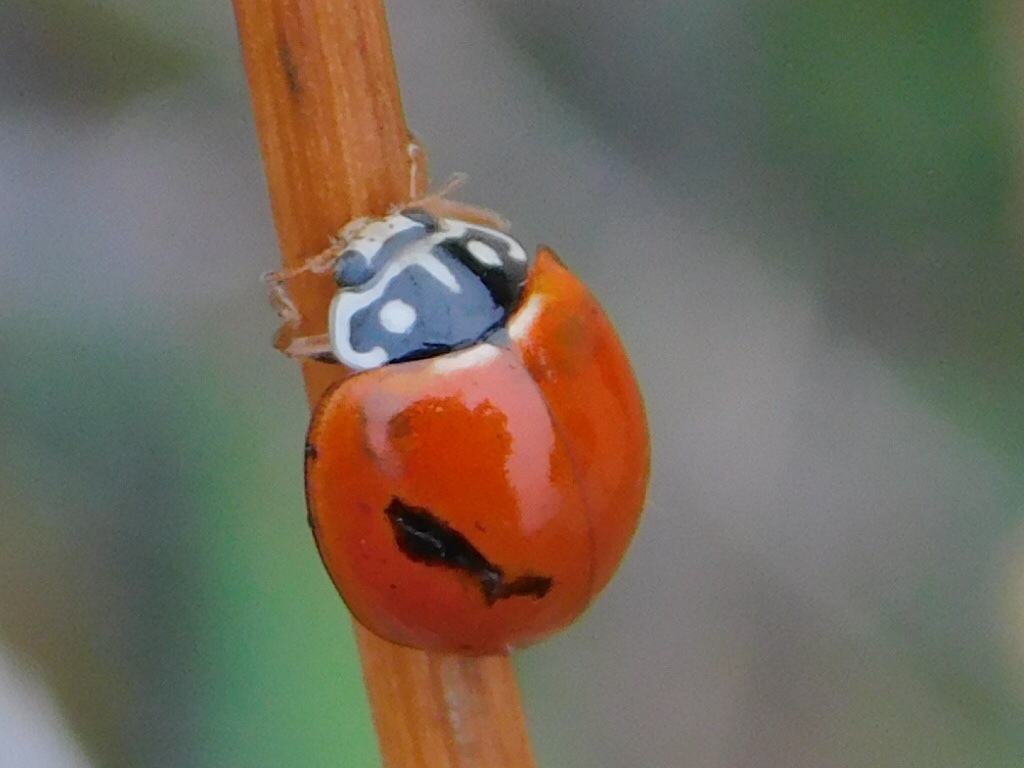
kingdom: Animalia
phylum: Arthropoda
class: Insecta
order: Coleoptera
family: Coccinellidae
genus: Cycloneda
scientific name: Cycloneda sanguinea
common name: Ladybird beetle
